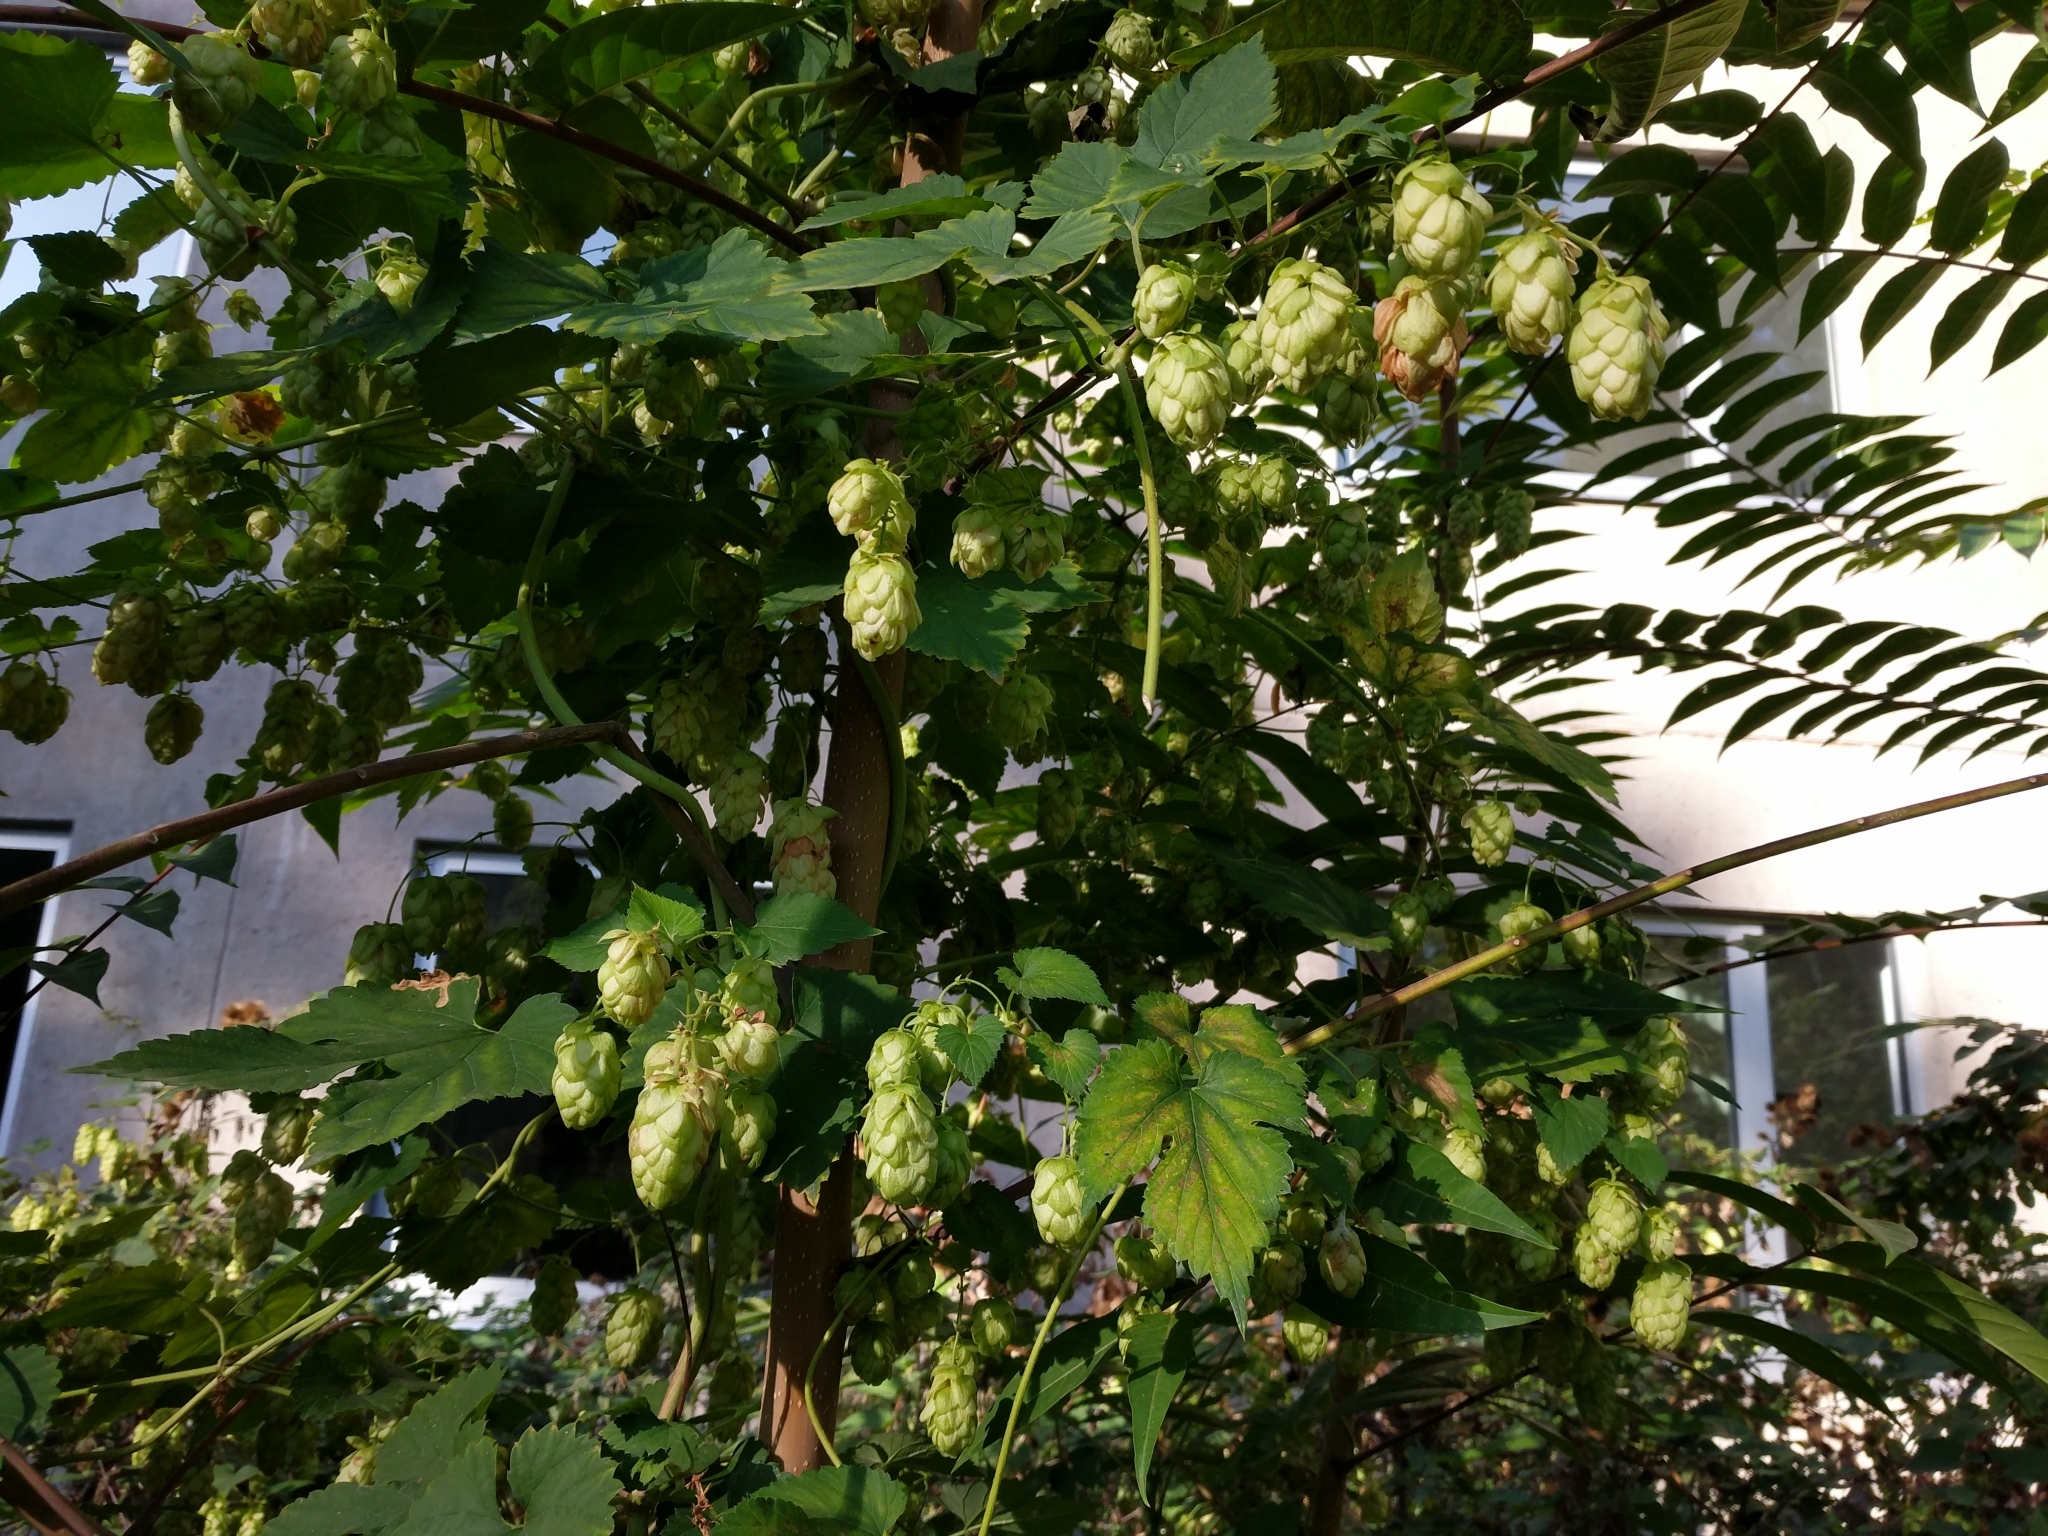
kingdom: Plantae
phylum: Tracheophyta
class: Magnoliopsida
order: Rosales
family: Cannabaceae
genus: Humulus
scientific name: Humulus lupulus
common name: Hop
